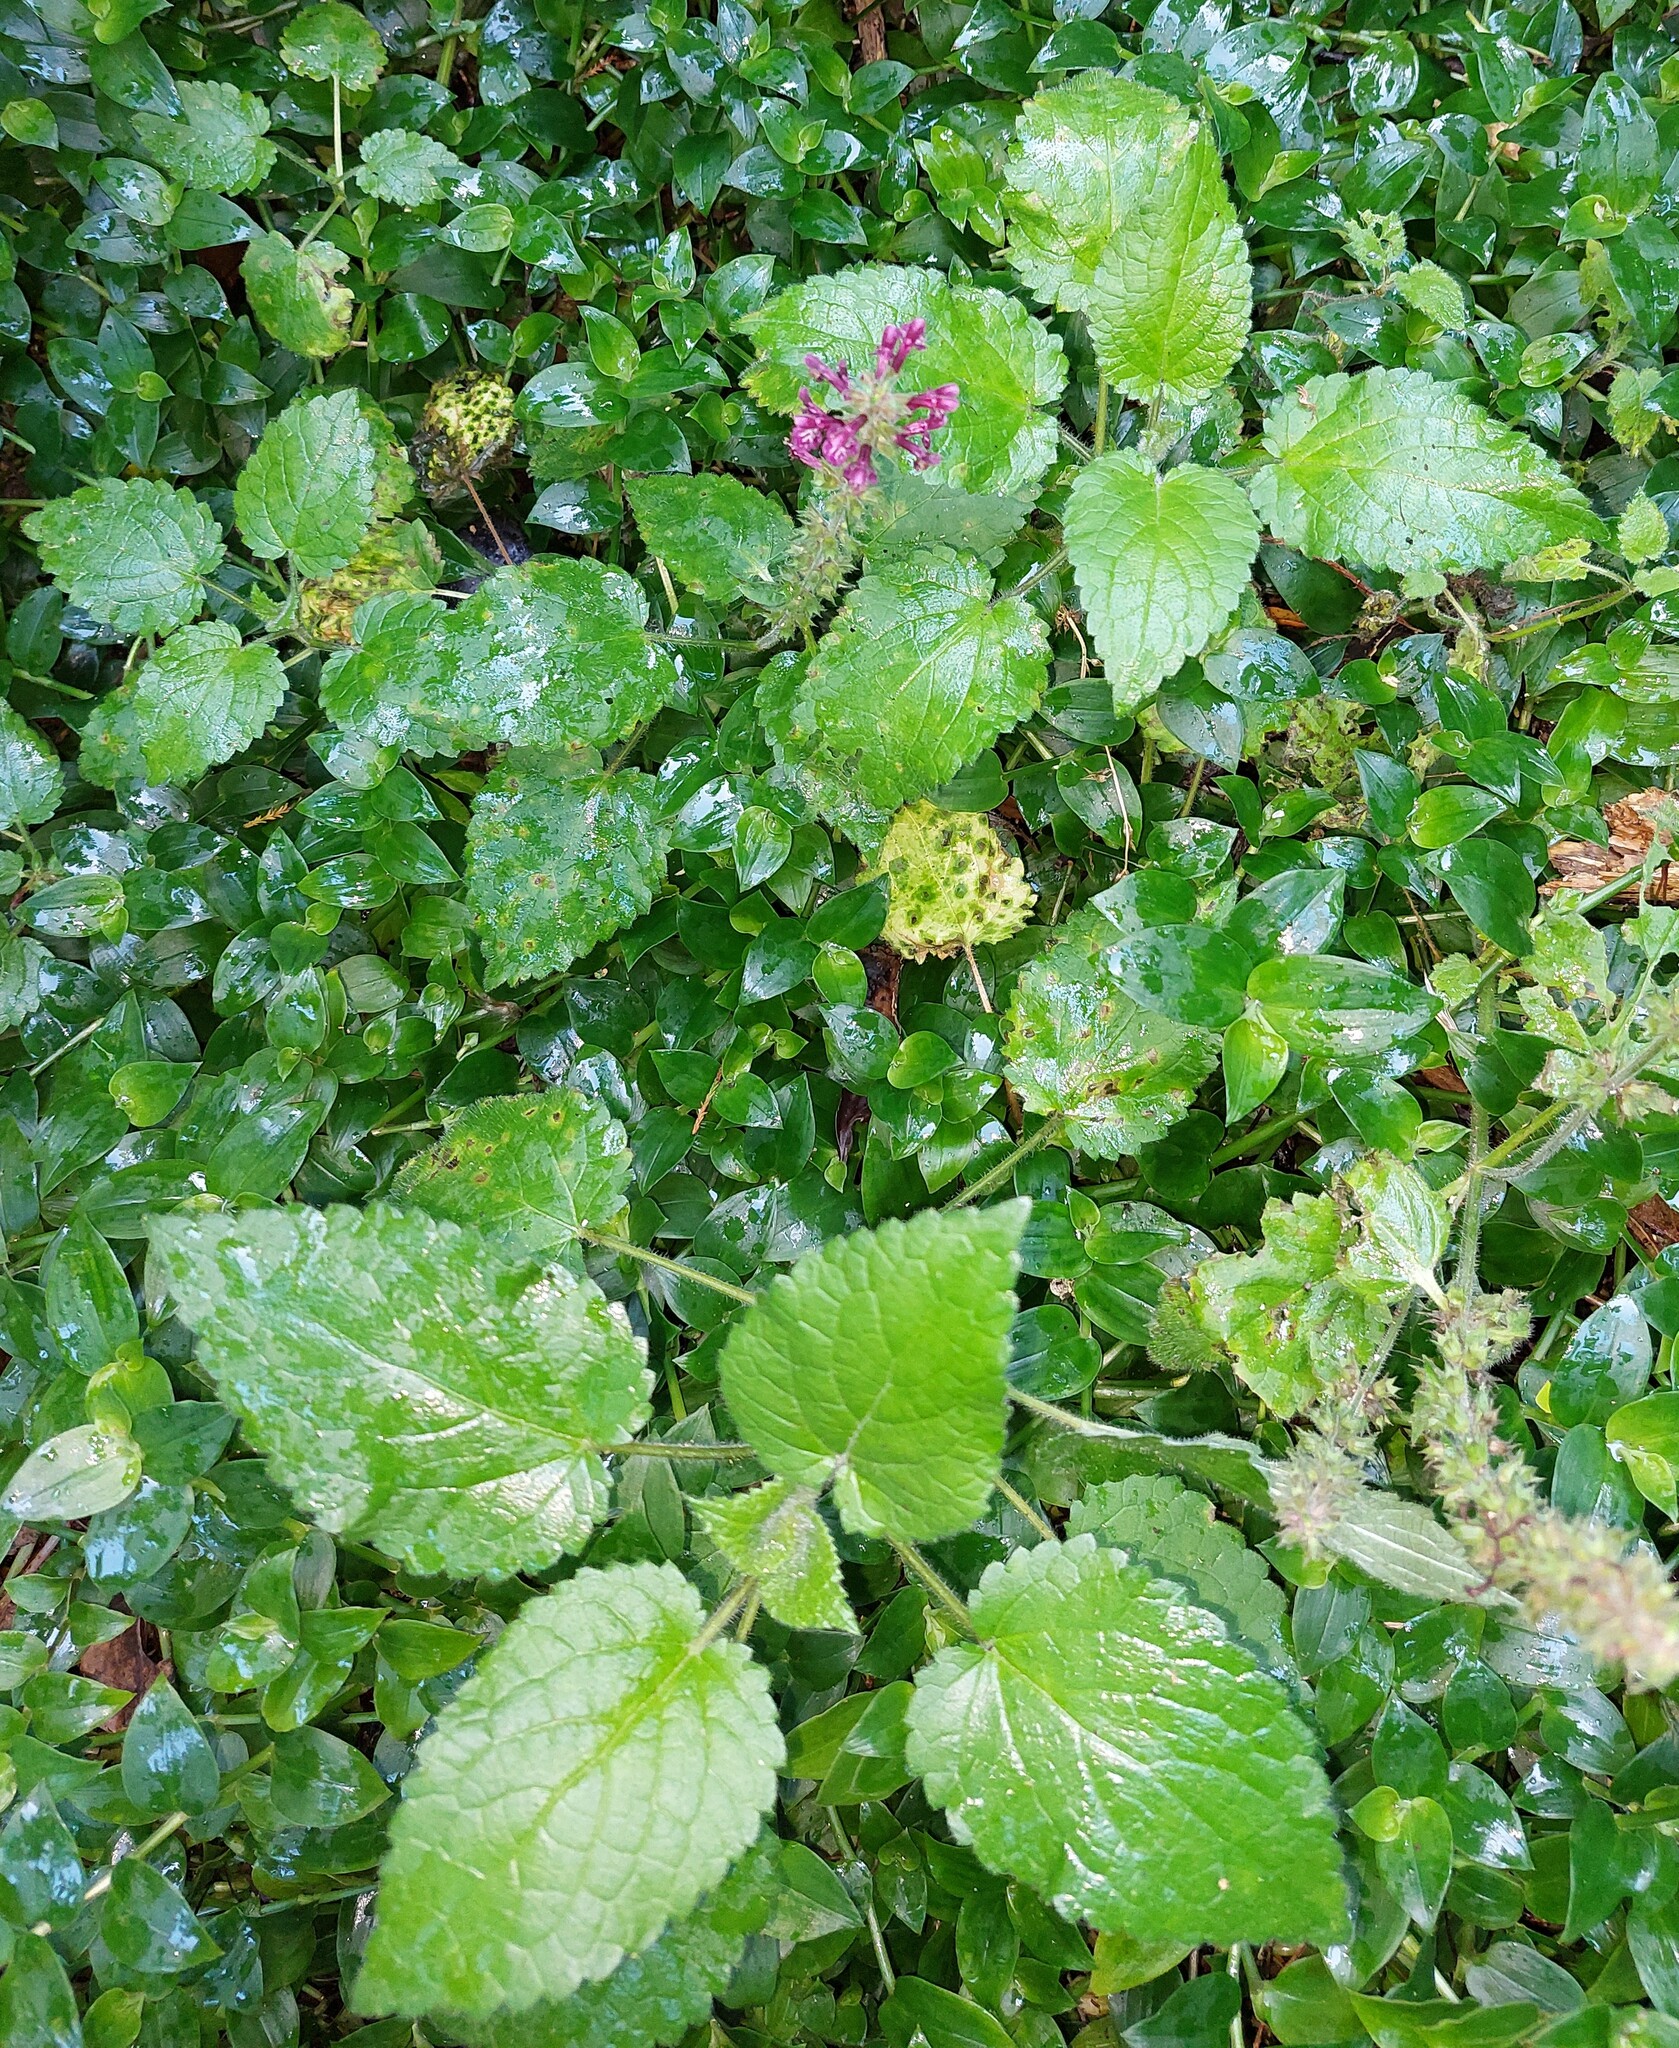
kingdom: Plantae
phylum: Tracheophyta
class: Magnoliopsida
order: Lamiales
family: Lamiaceae
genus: Stachys
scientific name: Stachys sylvatica
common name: Hedge woundwort
